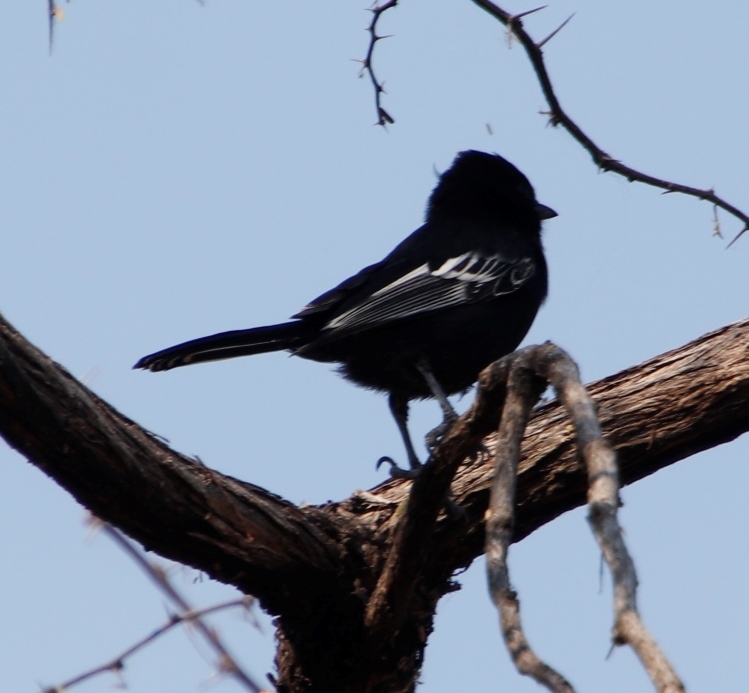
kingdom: Animalia
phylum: Chordata
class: Aves
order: Passeriformes
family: Paridae
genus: Parus
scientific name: Parus niger
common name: Southern black tit
